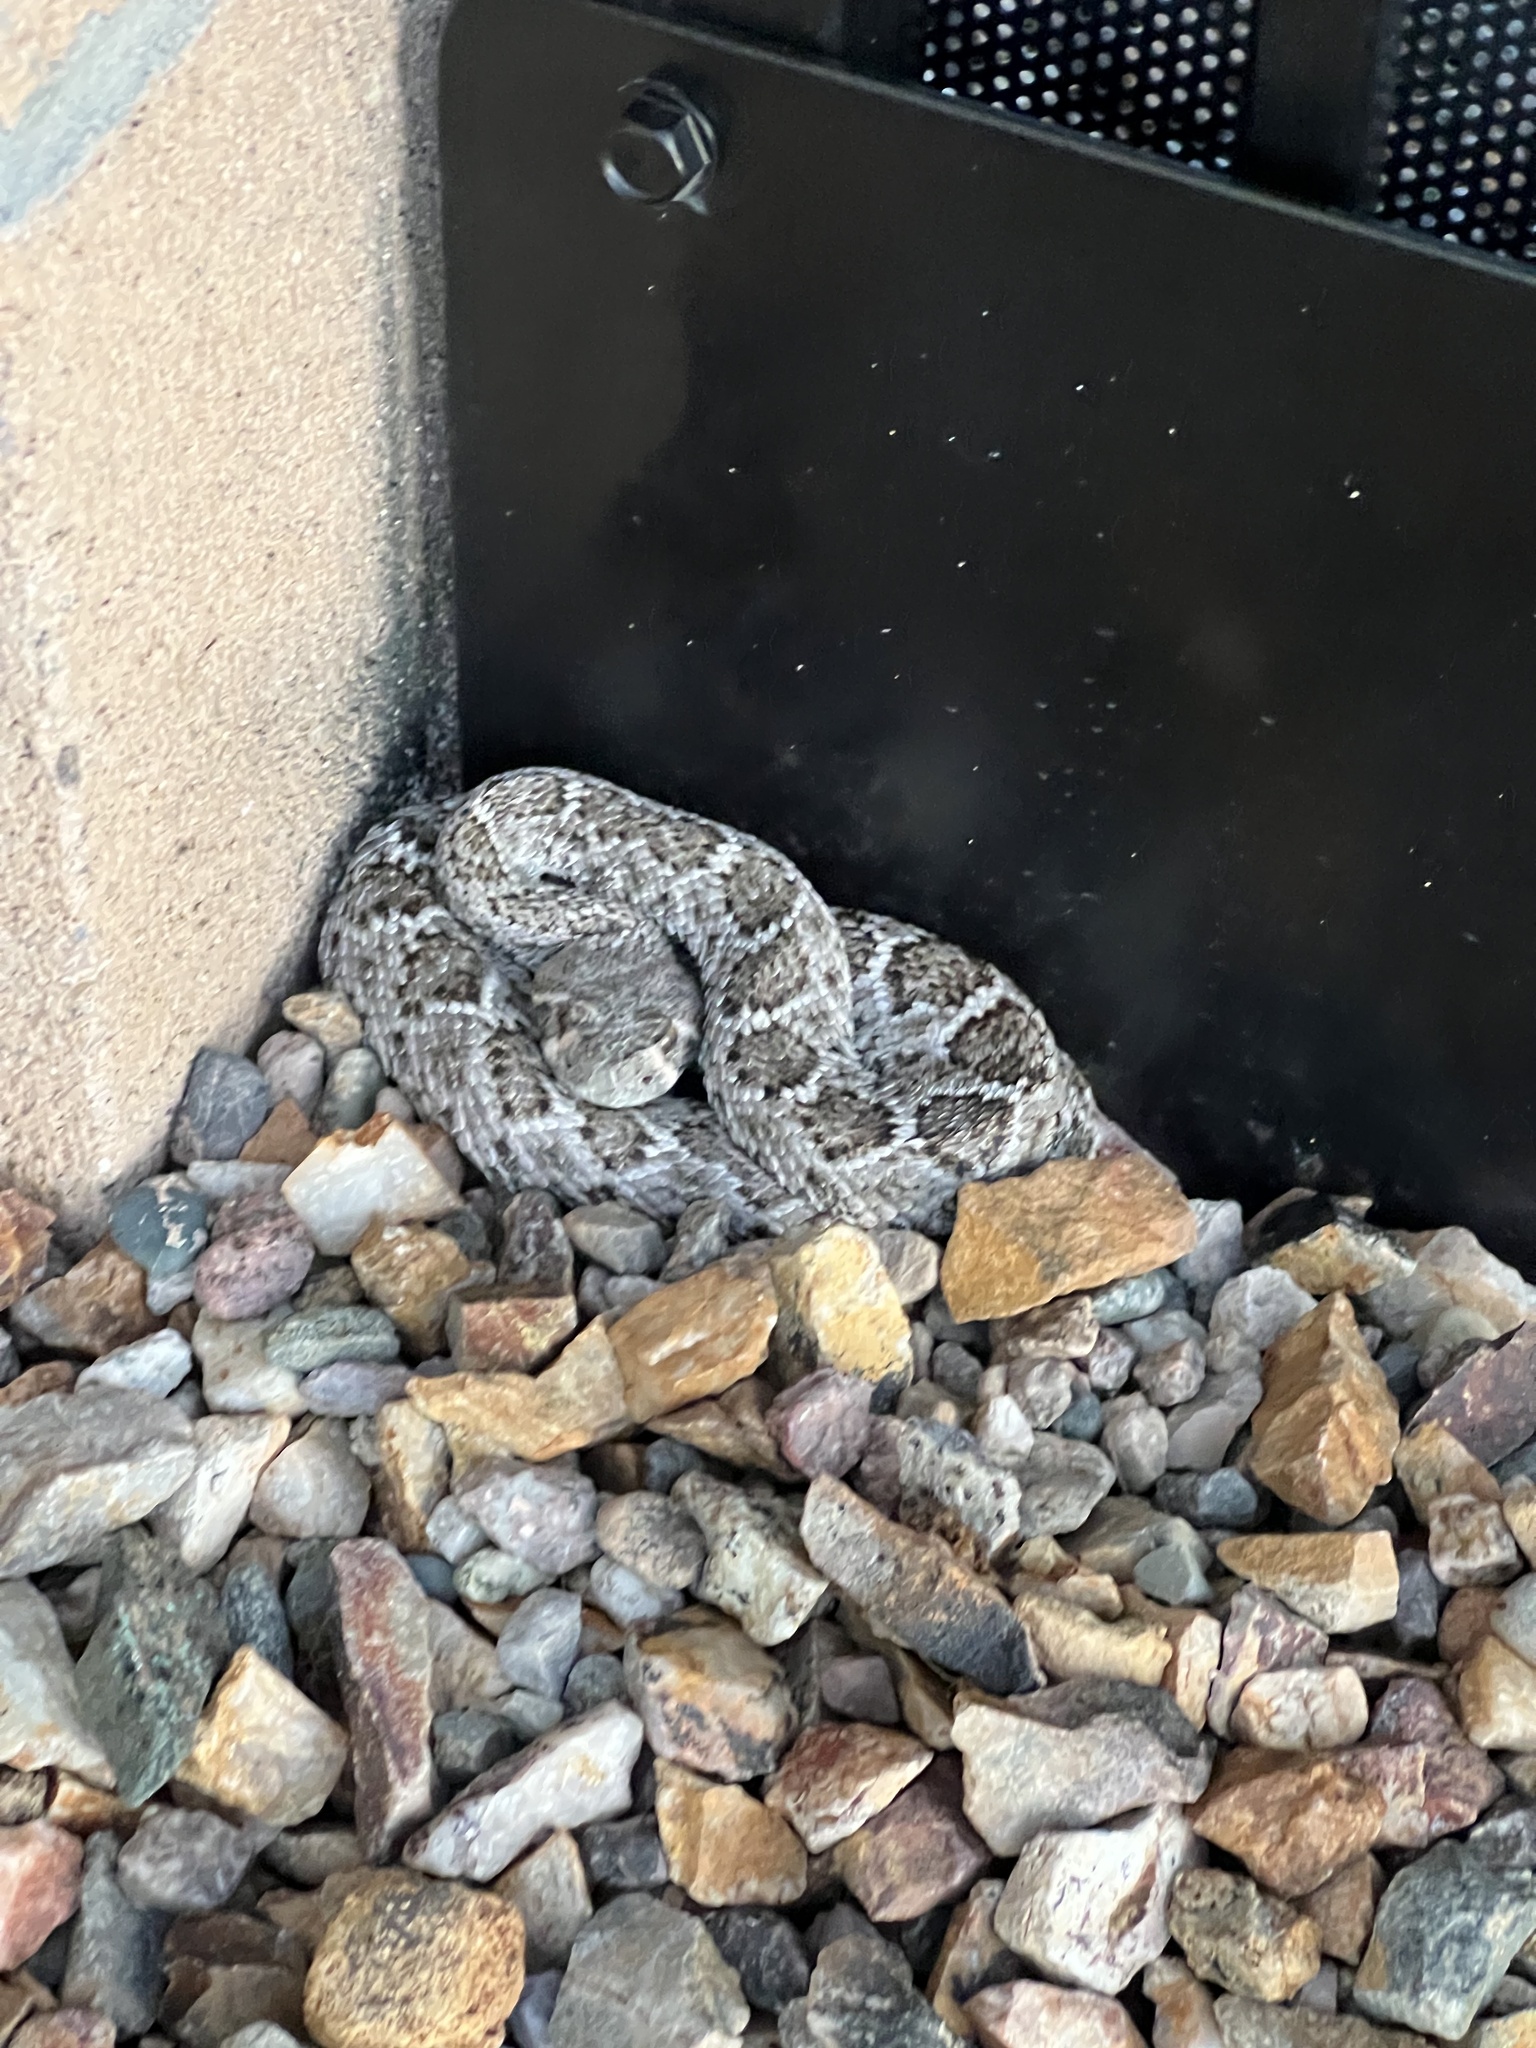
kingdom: Animalia
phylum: Chordata
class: Squamata
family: Viperidae
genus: Crotalus
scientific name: Crotalus atrox
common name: Western diamond-backed rattlesnake
